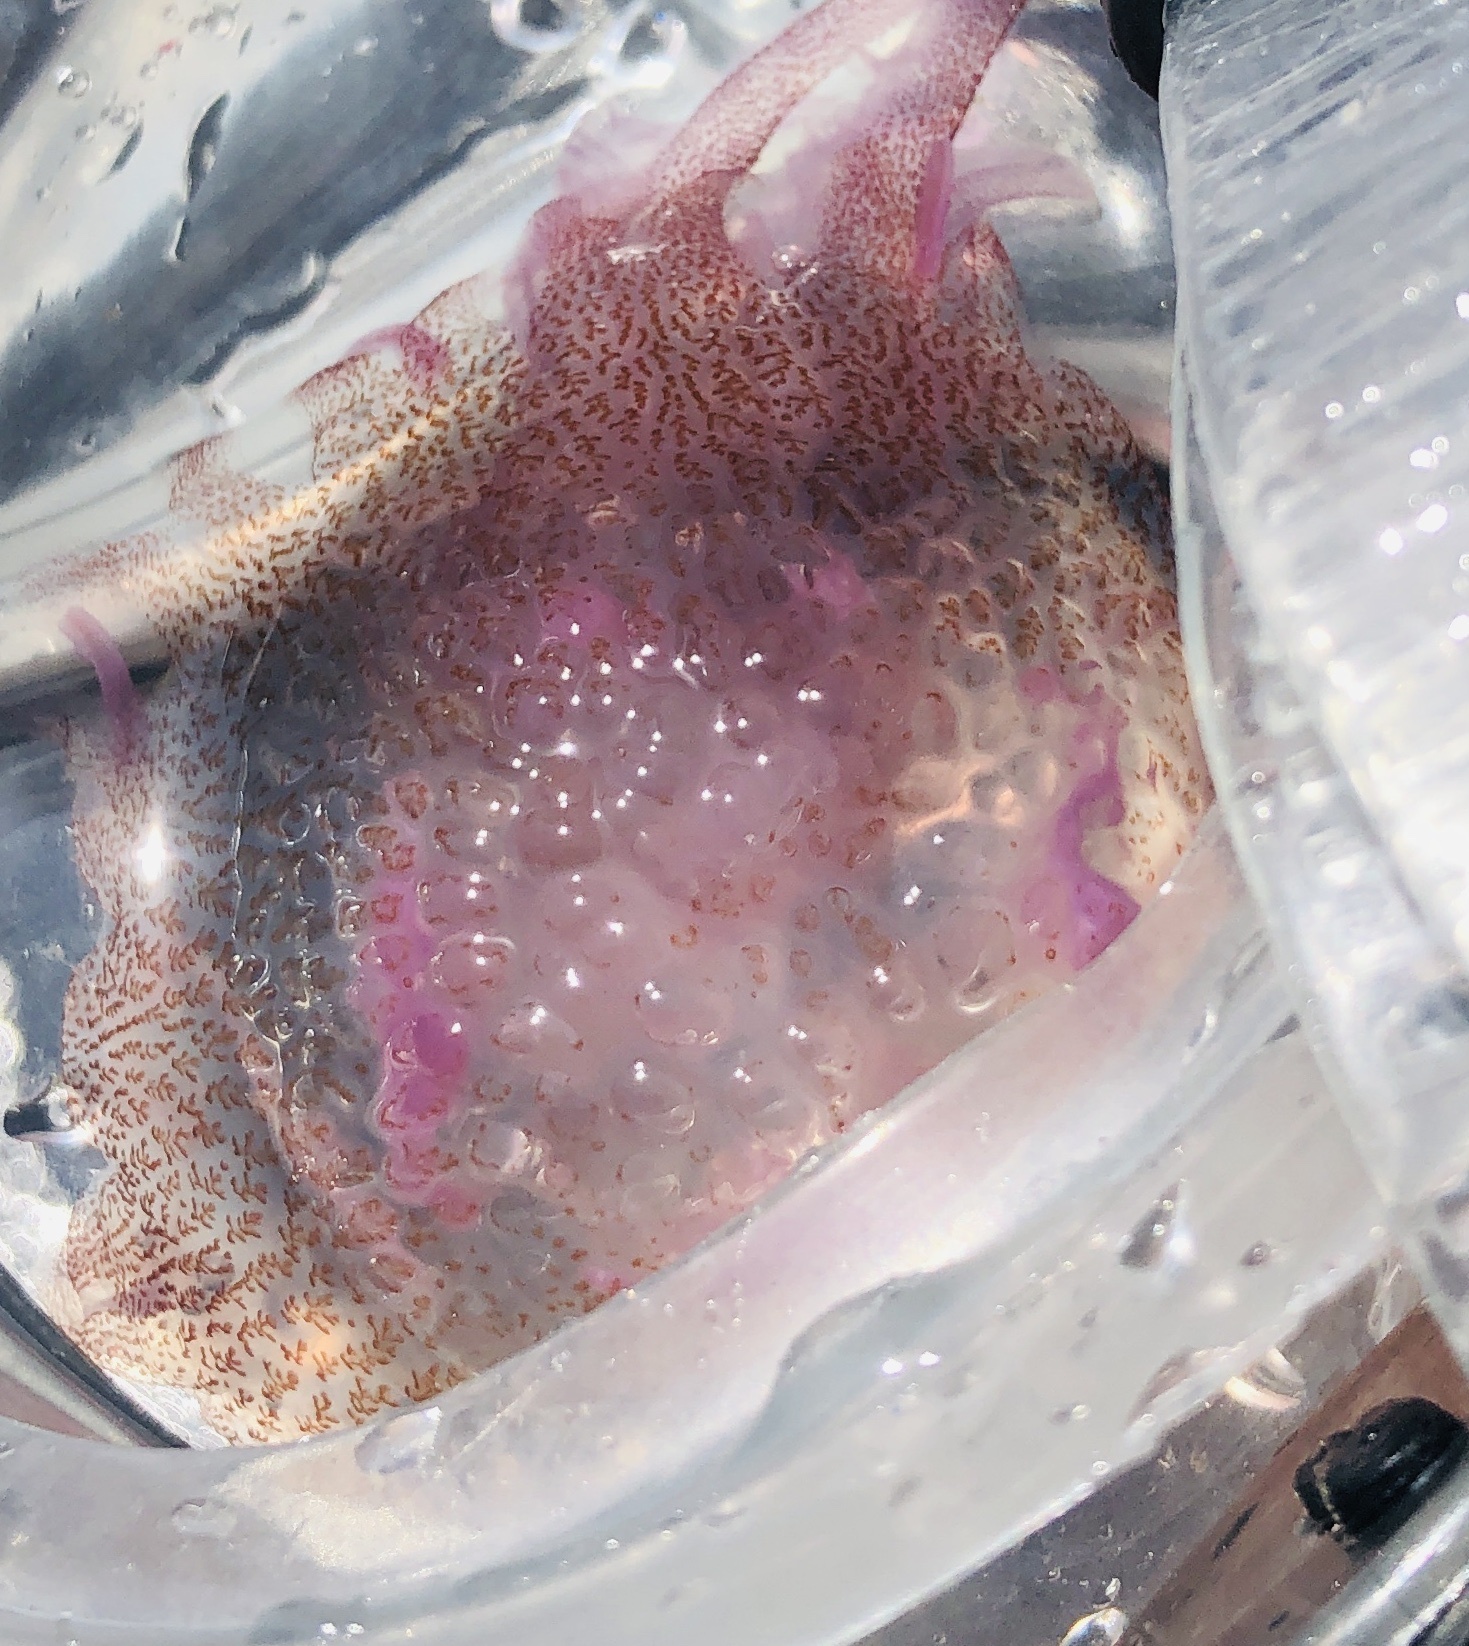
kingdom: Animalia
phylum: Cnidaria
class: Scyphozoa
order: Semaeostomeae
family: Pelagiidae
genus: Pelagia
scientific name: Pelagia noctiluca
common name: Mauve stinger
